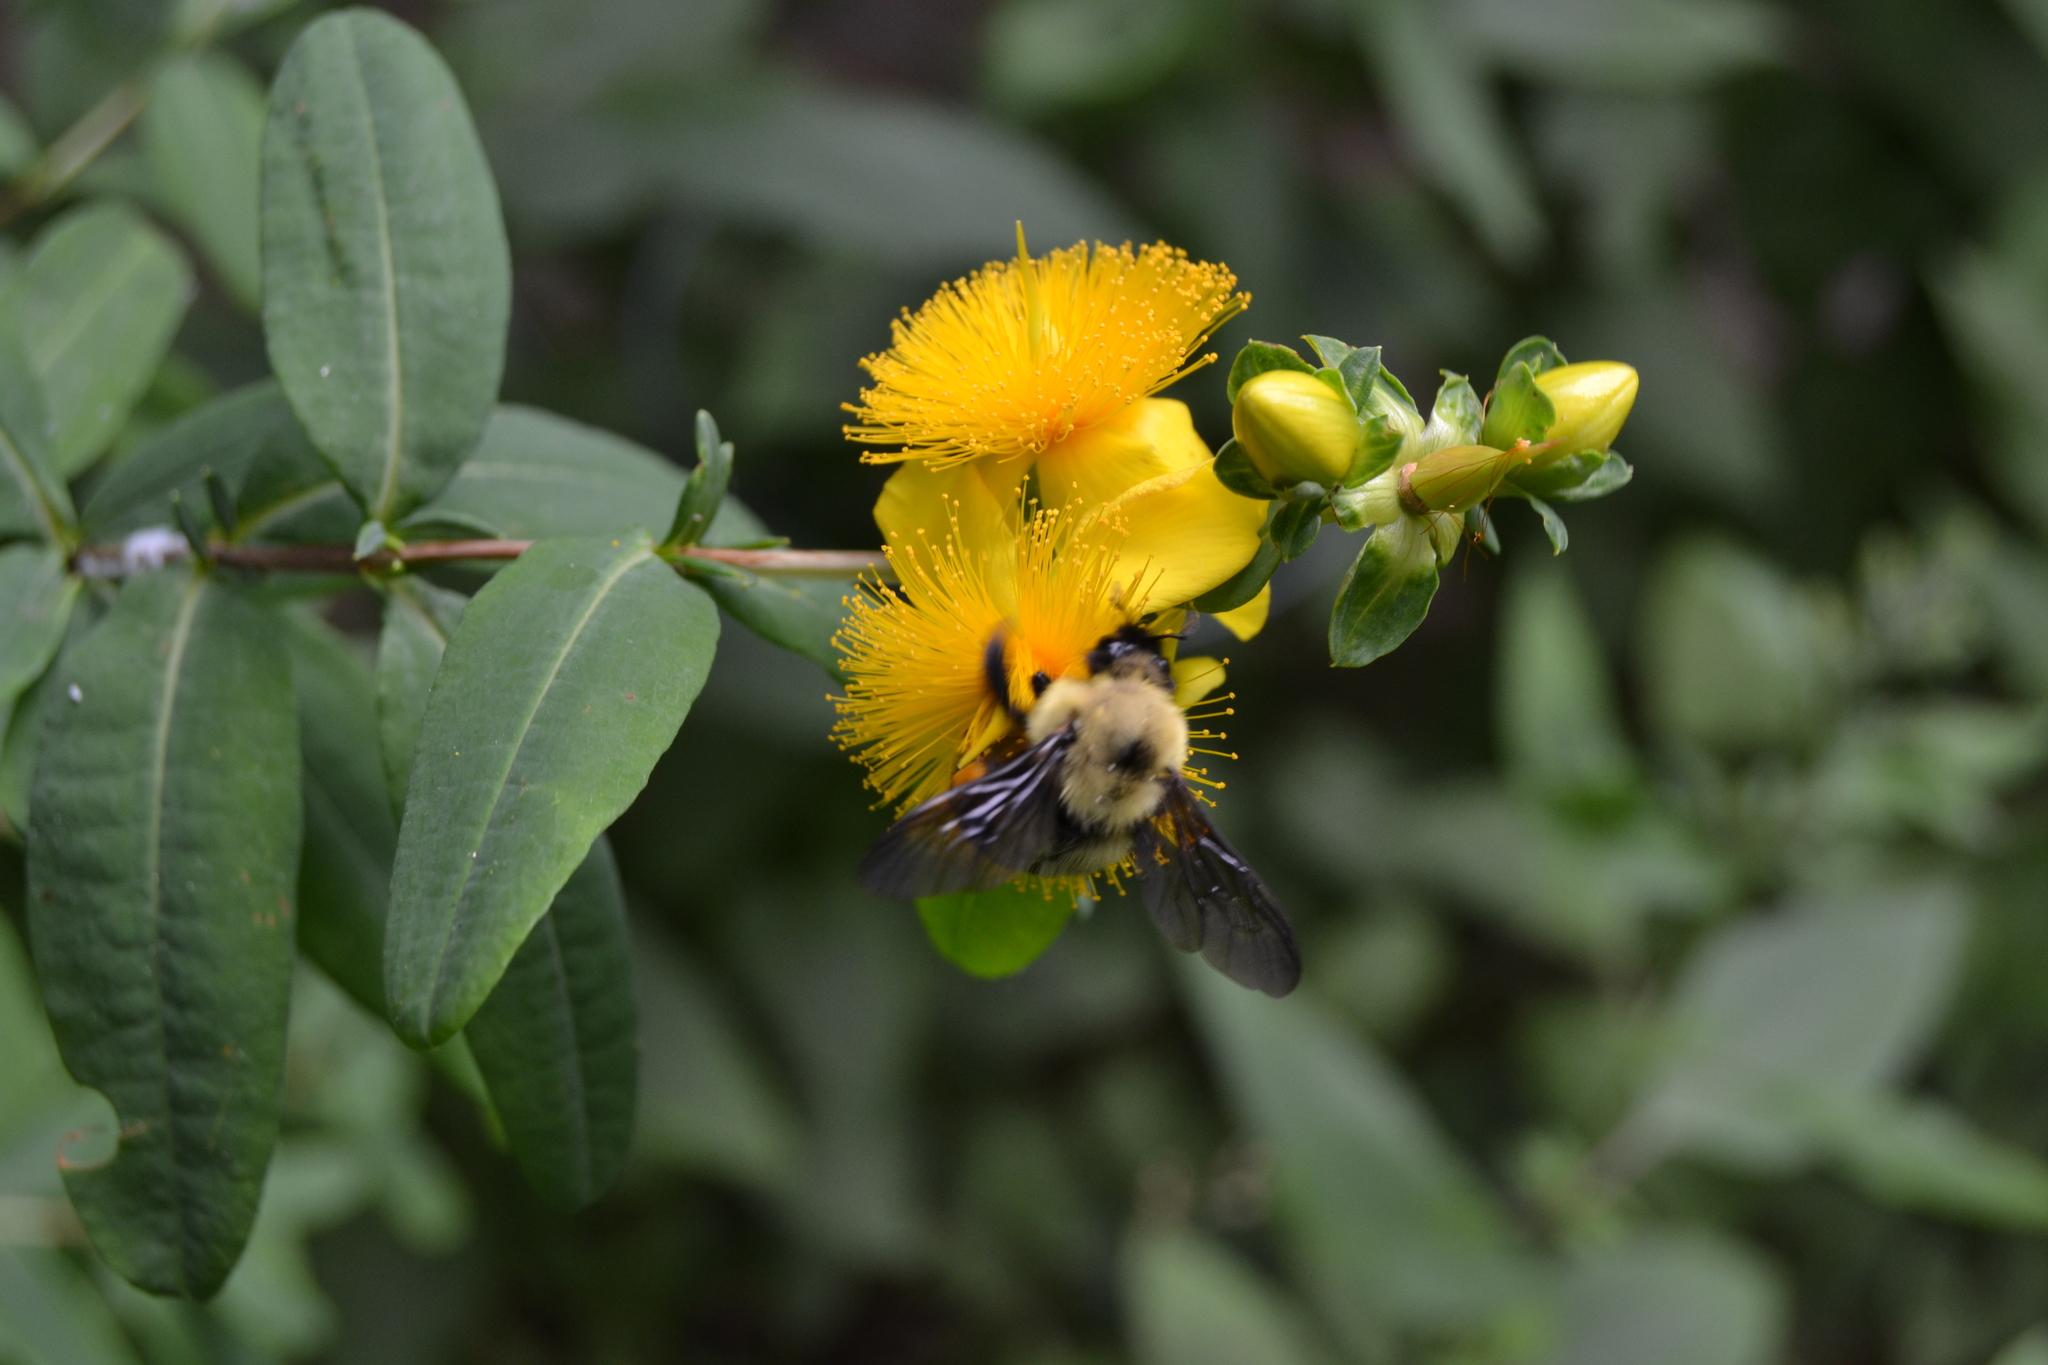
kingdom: Animalia
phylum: Arthropoda
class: Insecta
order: Hymenoptera
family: Apidae
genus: Bombus
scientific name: Bombus bimaculatus
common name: Two-spotted bumble bee
